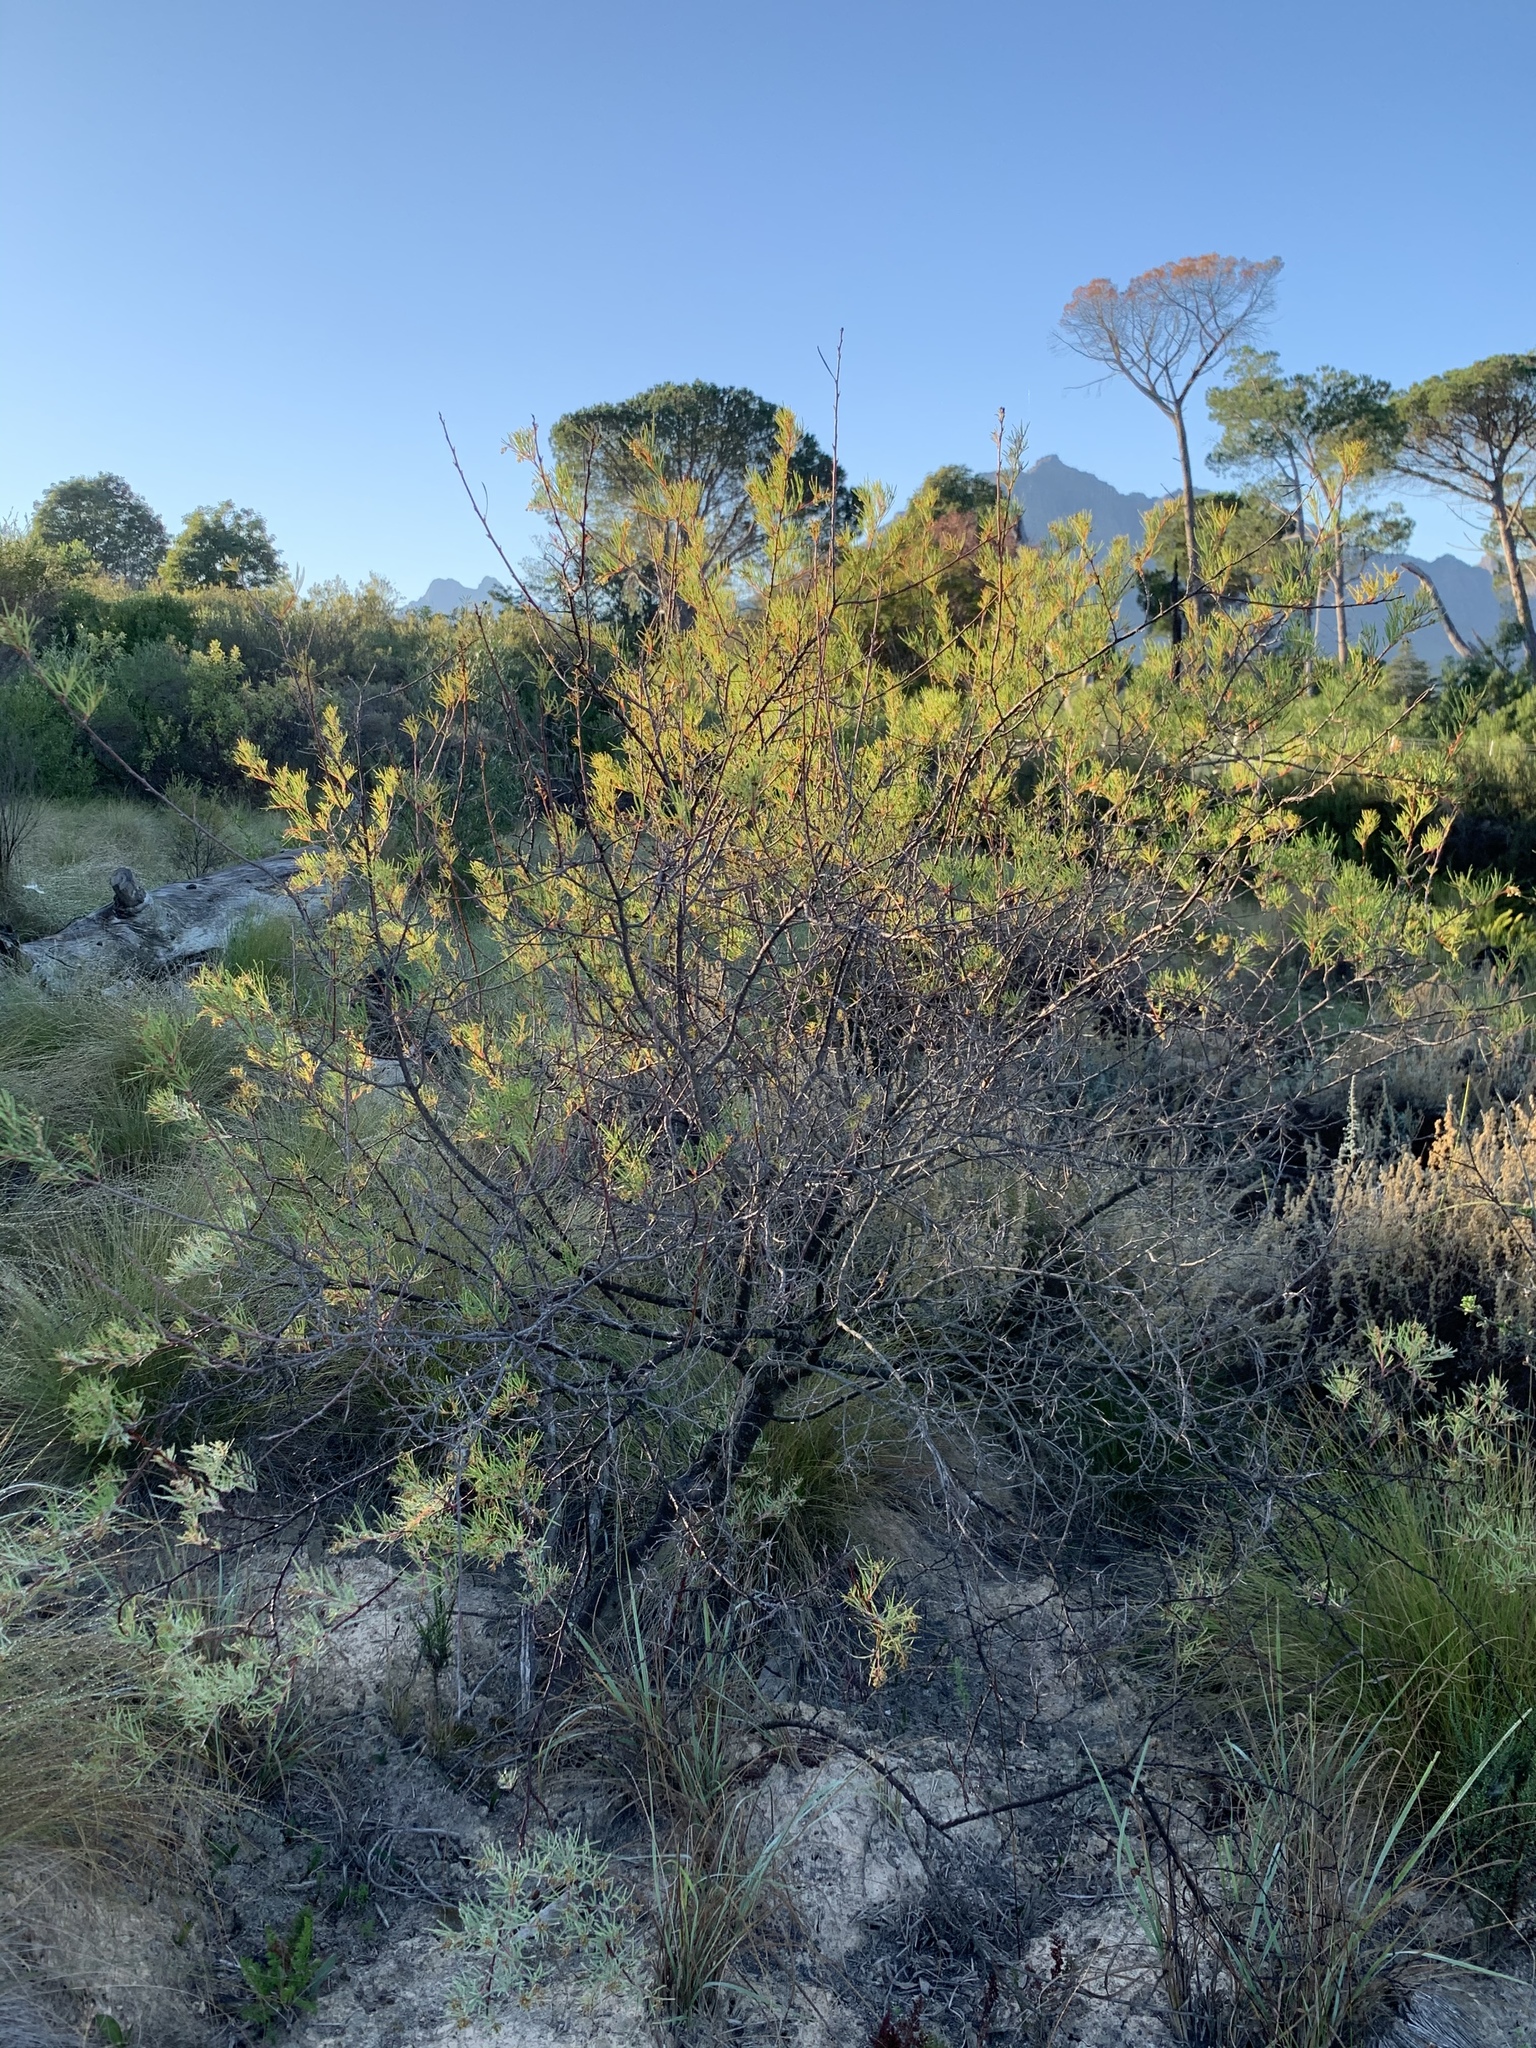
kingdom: Plantae
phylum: Tracheophyta
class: Magnoliopsida
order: Sapindales
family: Anacardiaceae
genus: Searsia
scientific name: Searsia rosmarinifolia
